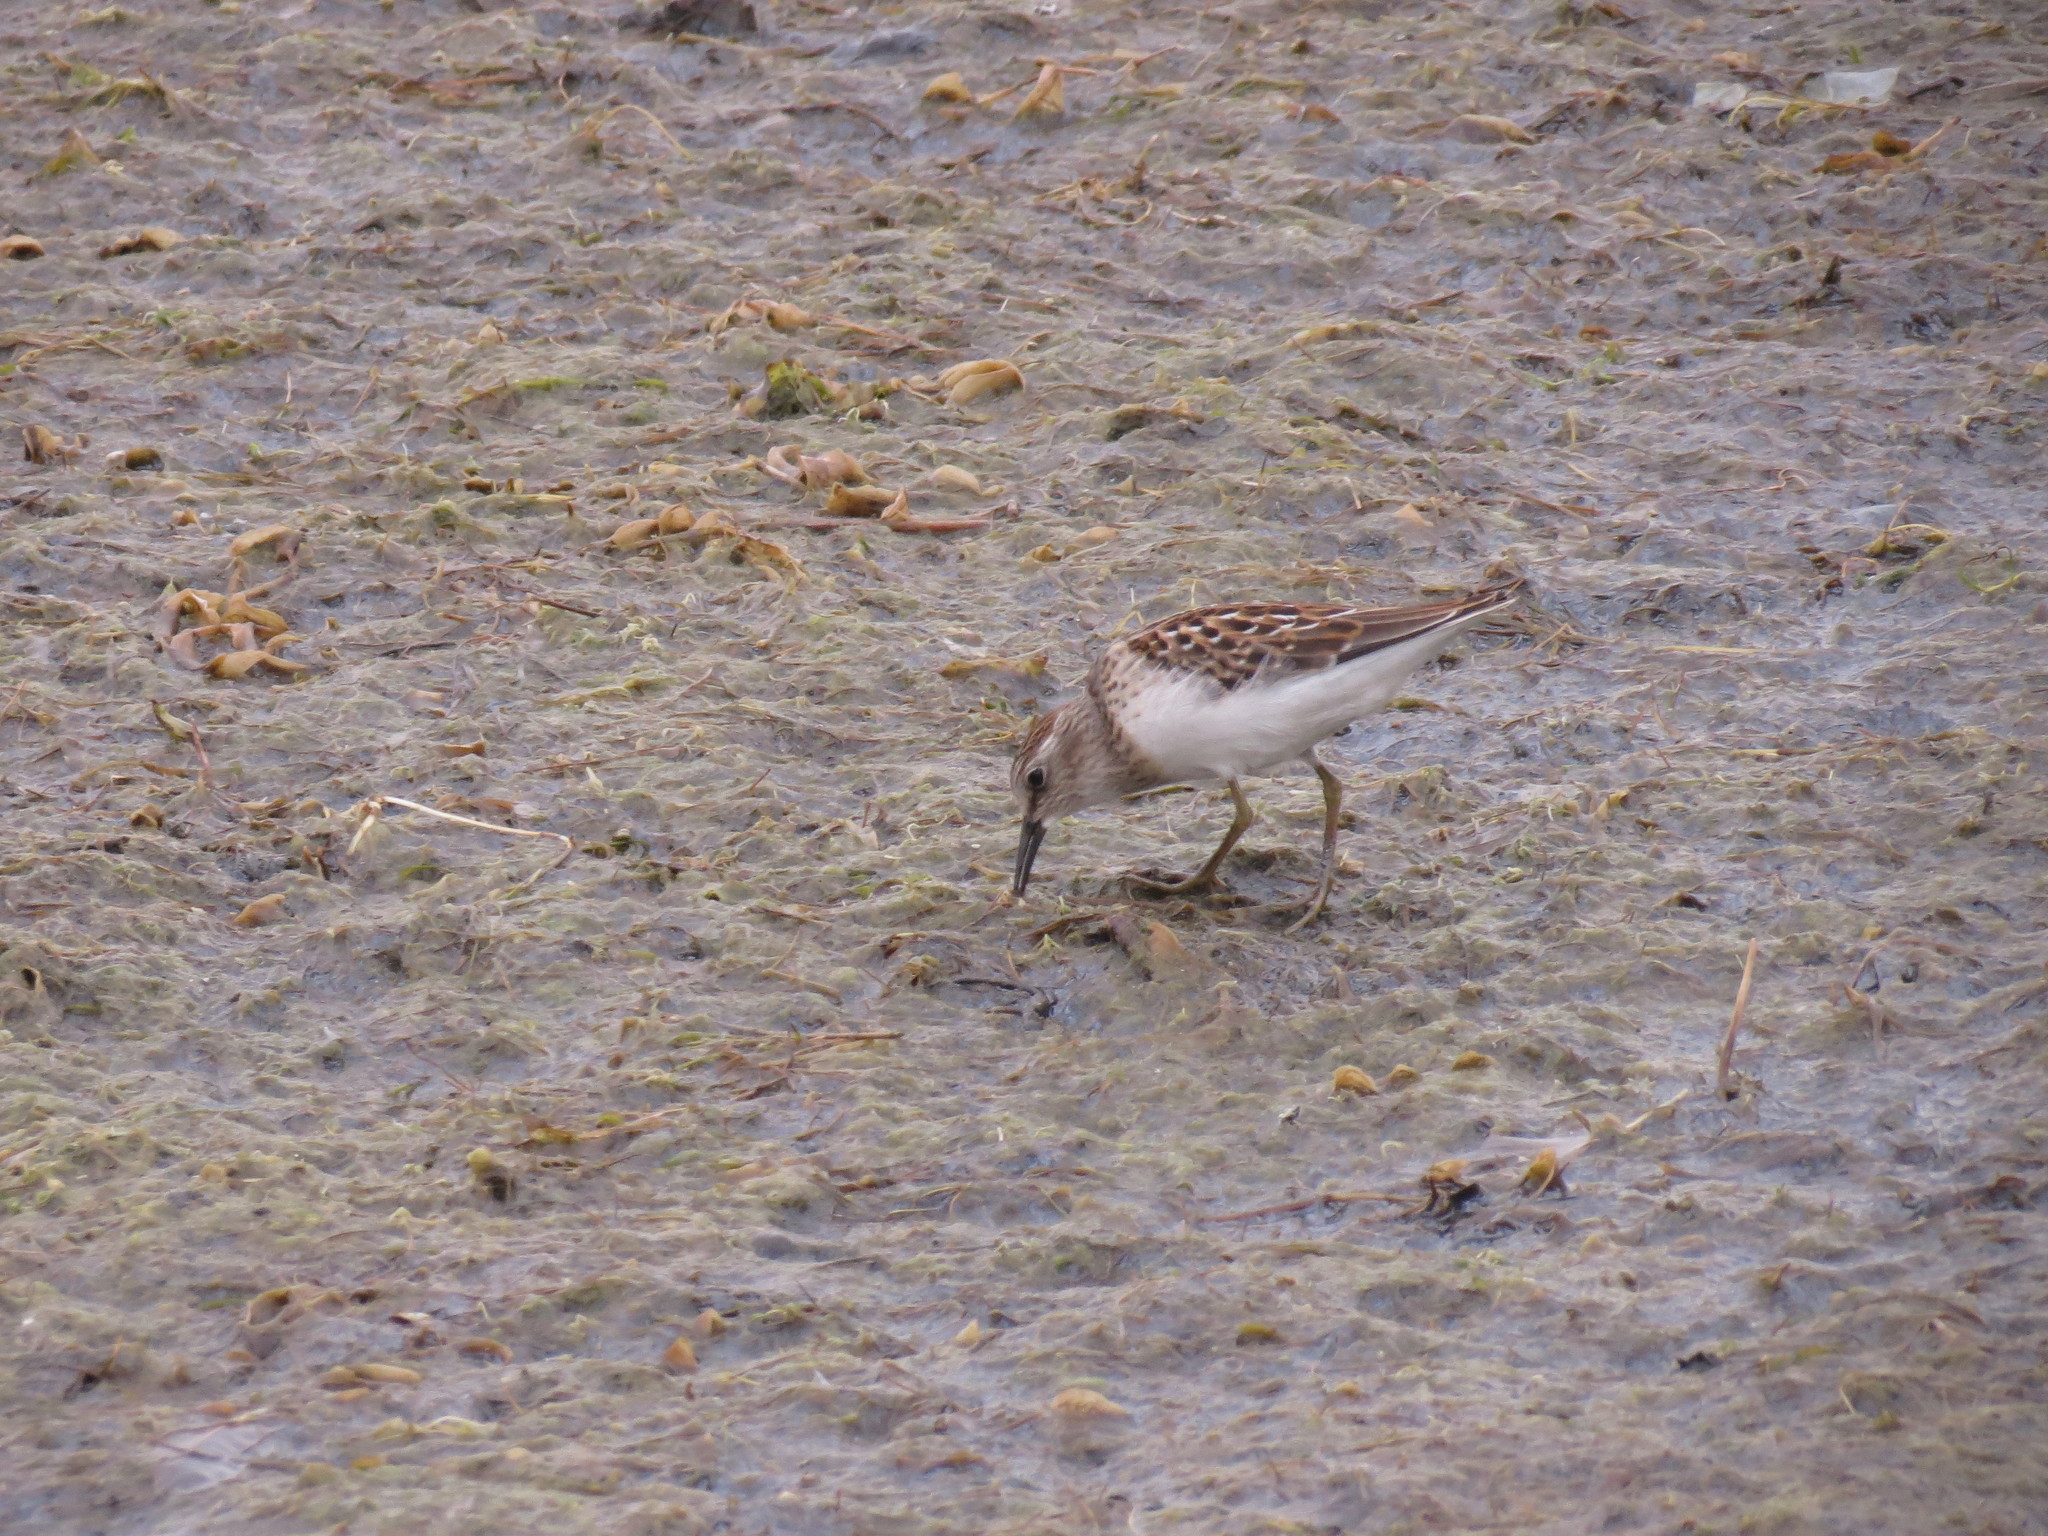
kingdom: Animalia
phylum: Chordata
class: Aves
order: Charadriiformes
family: Scolopacidae
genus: Calidris
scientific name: Calidris minutilla
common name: Least sandpiper
